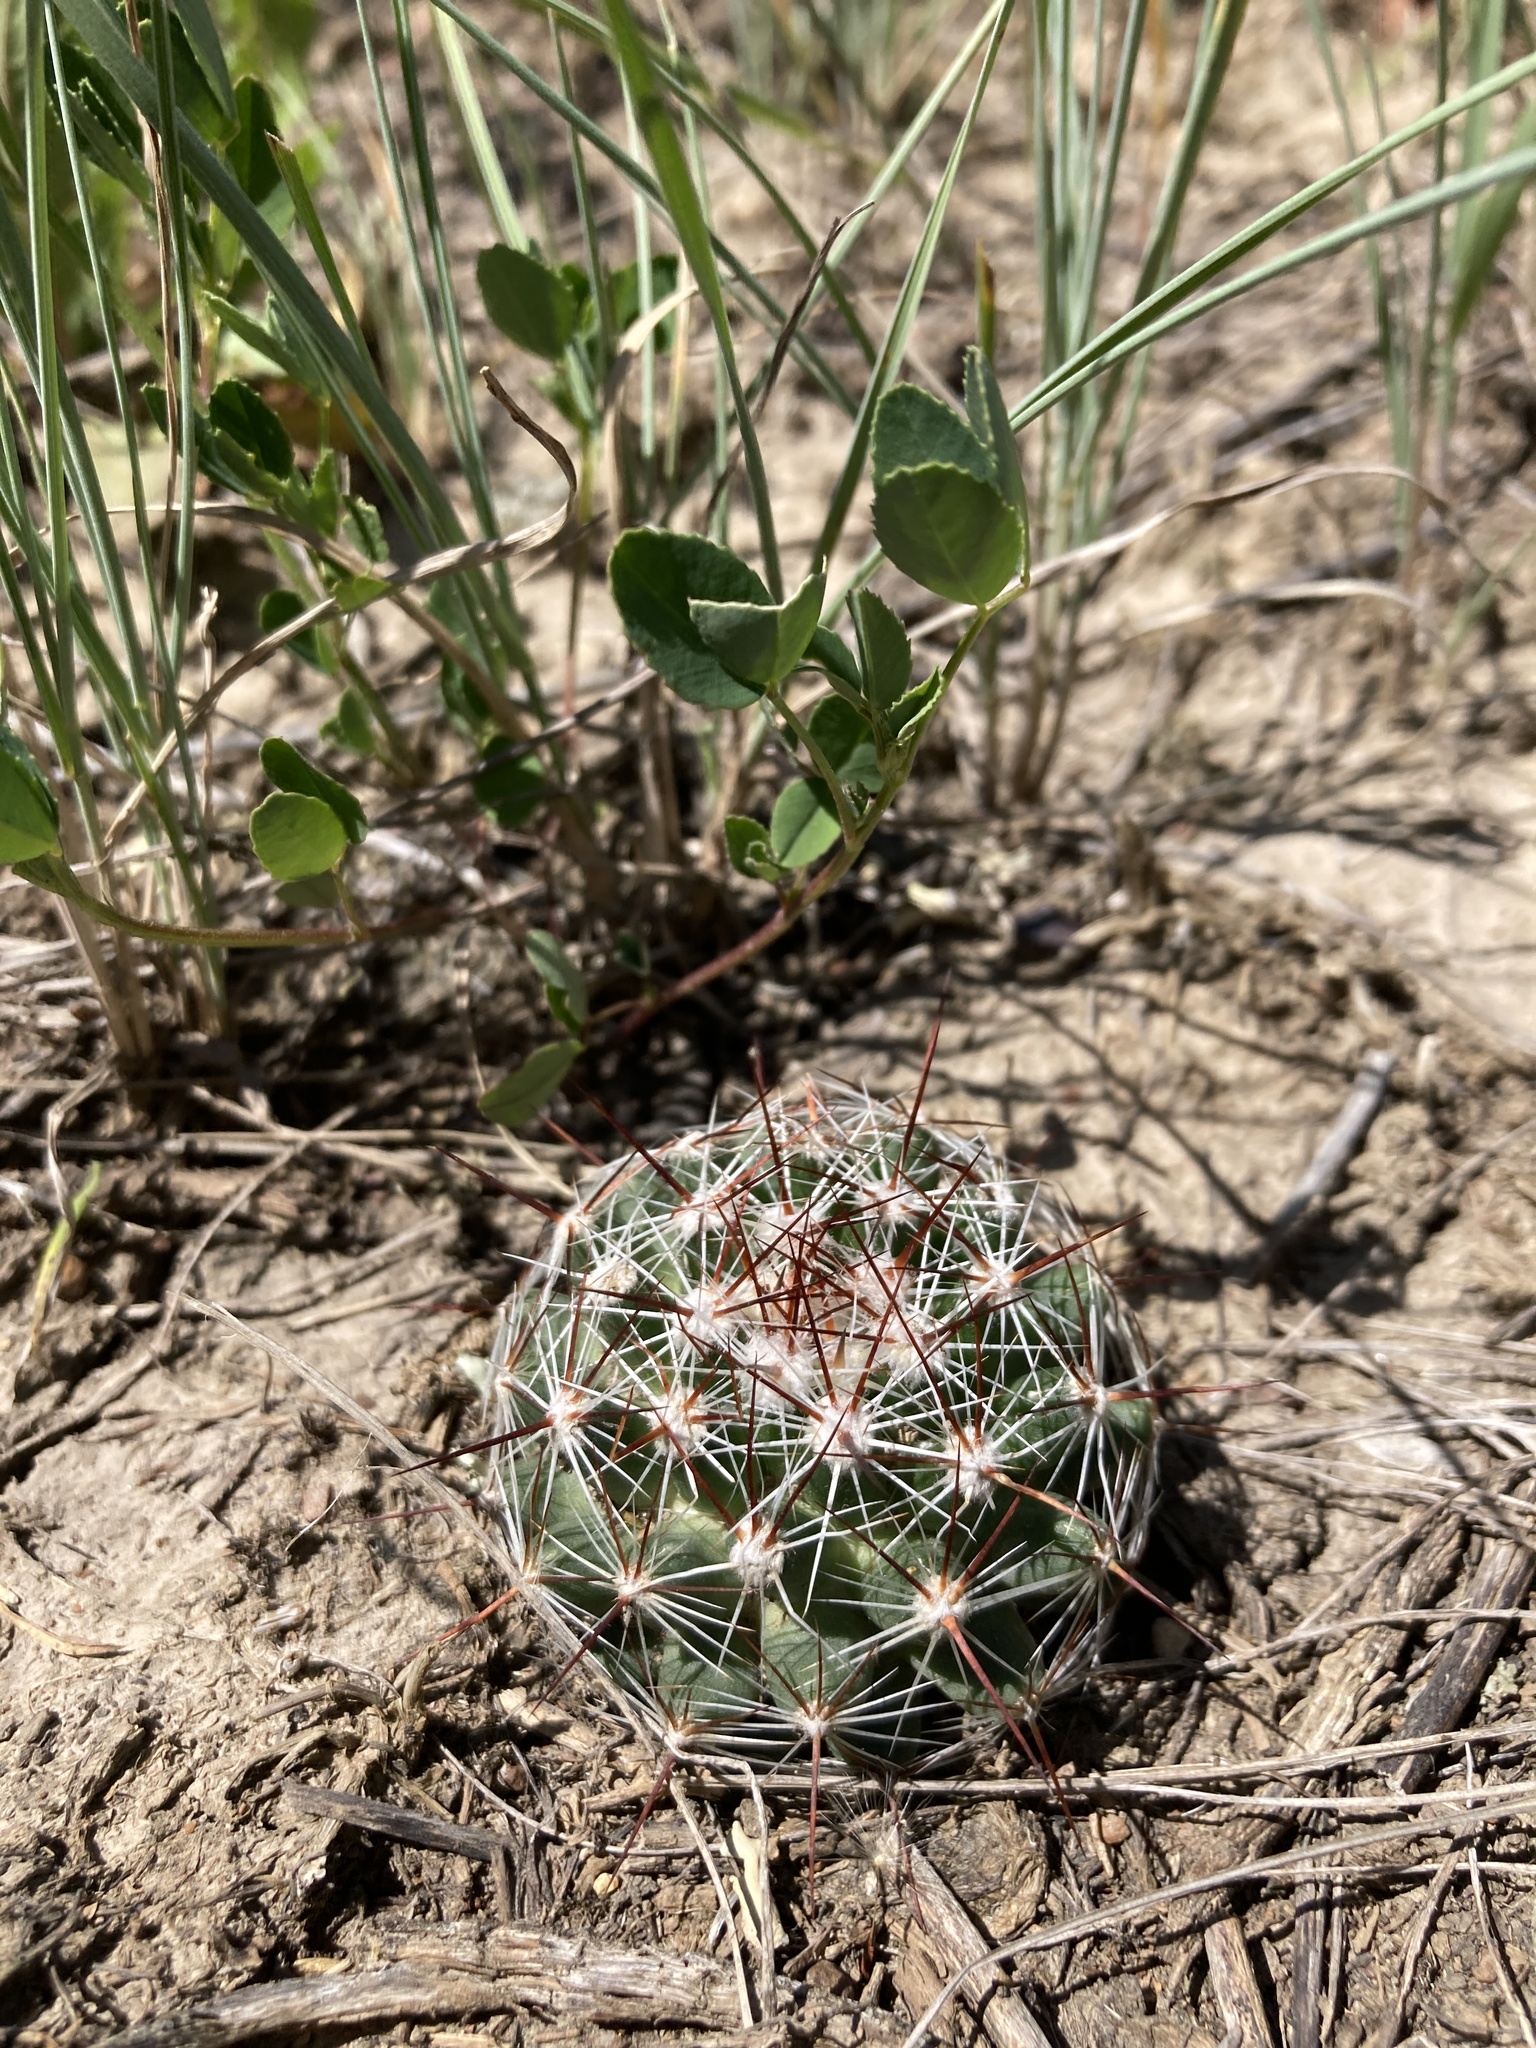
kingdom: Plantae
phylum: Tracheophyta
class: Magnoliopsida
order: Caryophyllales
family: Cactaceae
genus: Pelecyphora
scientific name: Pelecyphora vivipara
